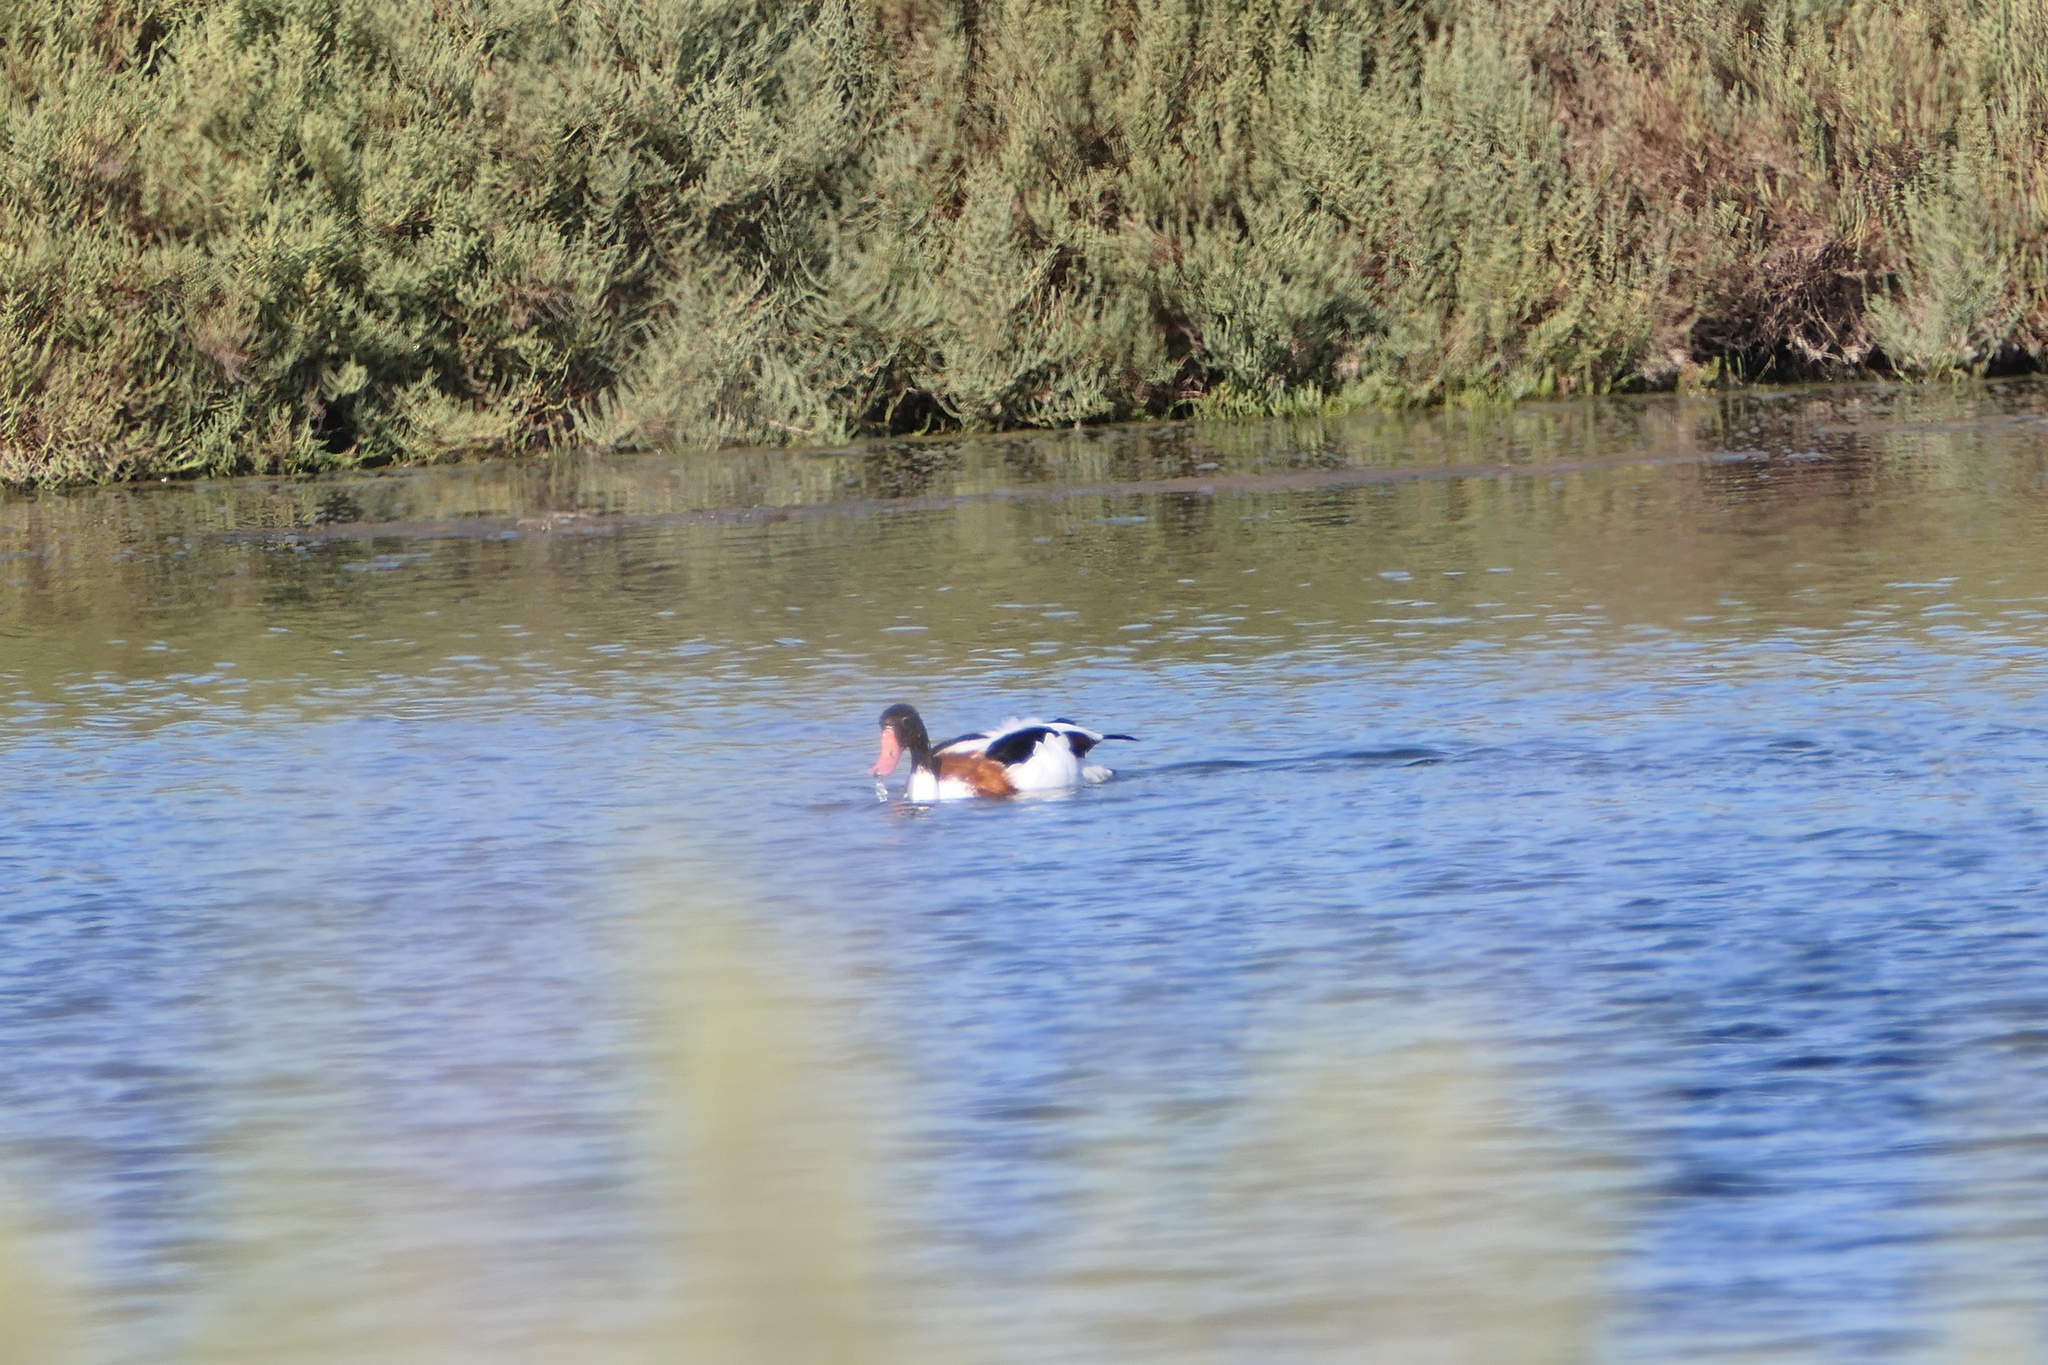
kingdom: Animalia
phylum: Chordata
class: Aves
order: Anseriformes
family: Anatidae
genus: Tadorna
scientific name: Tadorna tadorna
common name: Common shelduck
